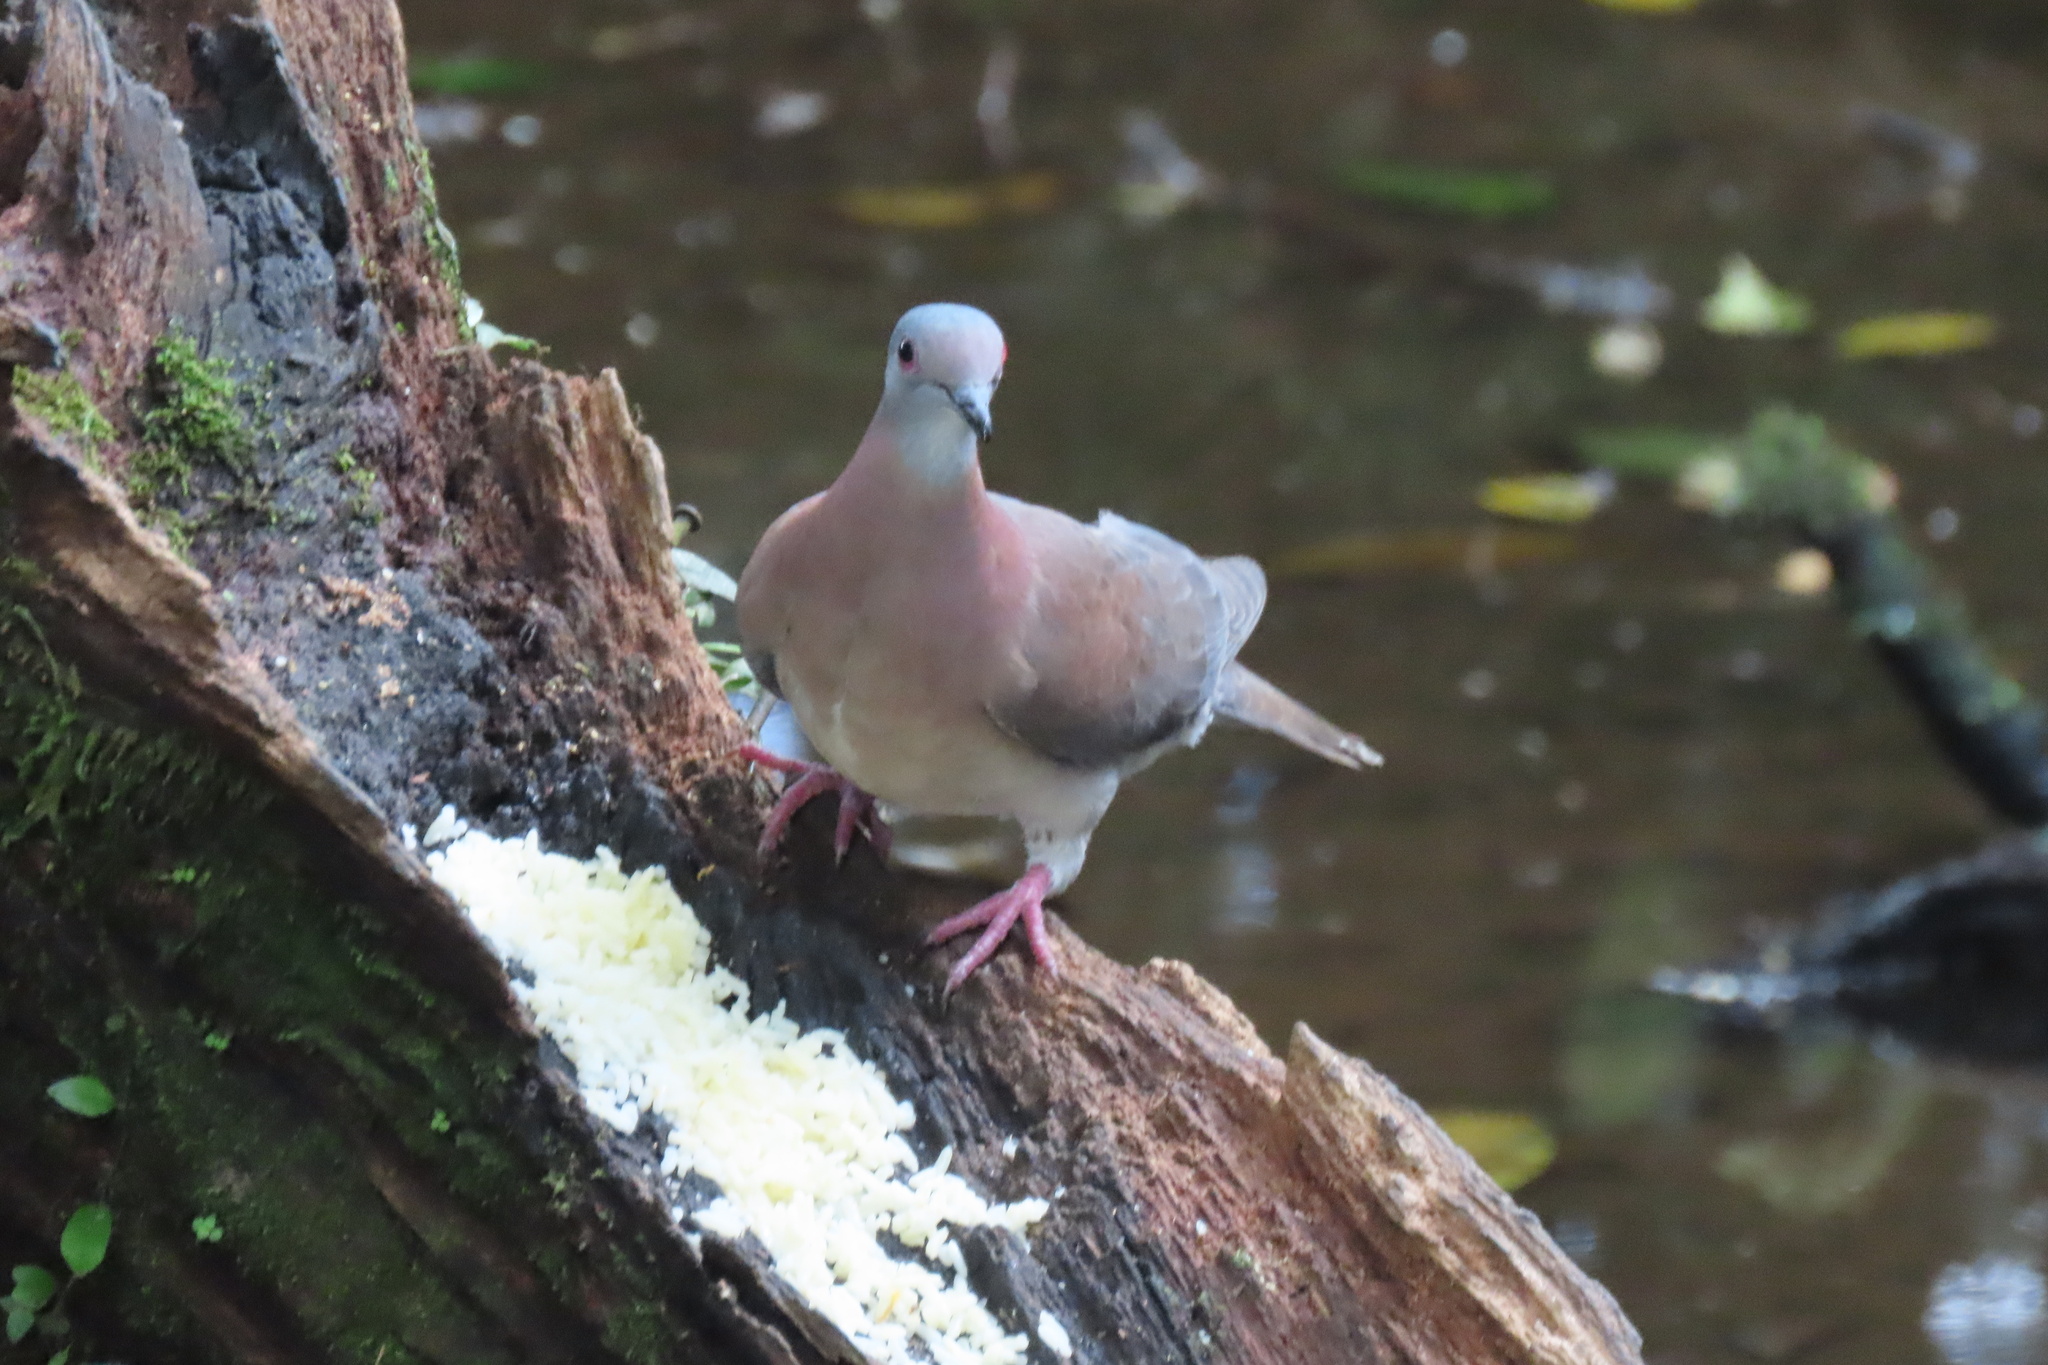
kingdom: Animalia
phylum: Chordata
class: Aves
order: Columbiformes
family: Columbidae
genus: Patagioenas
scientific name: Patagioenas cayennensis
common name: Pale-vented pigeon
